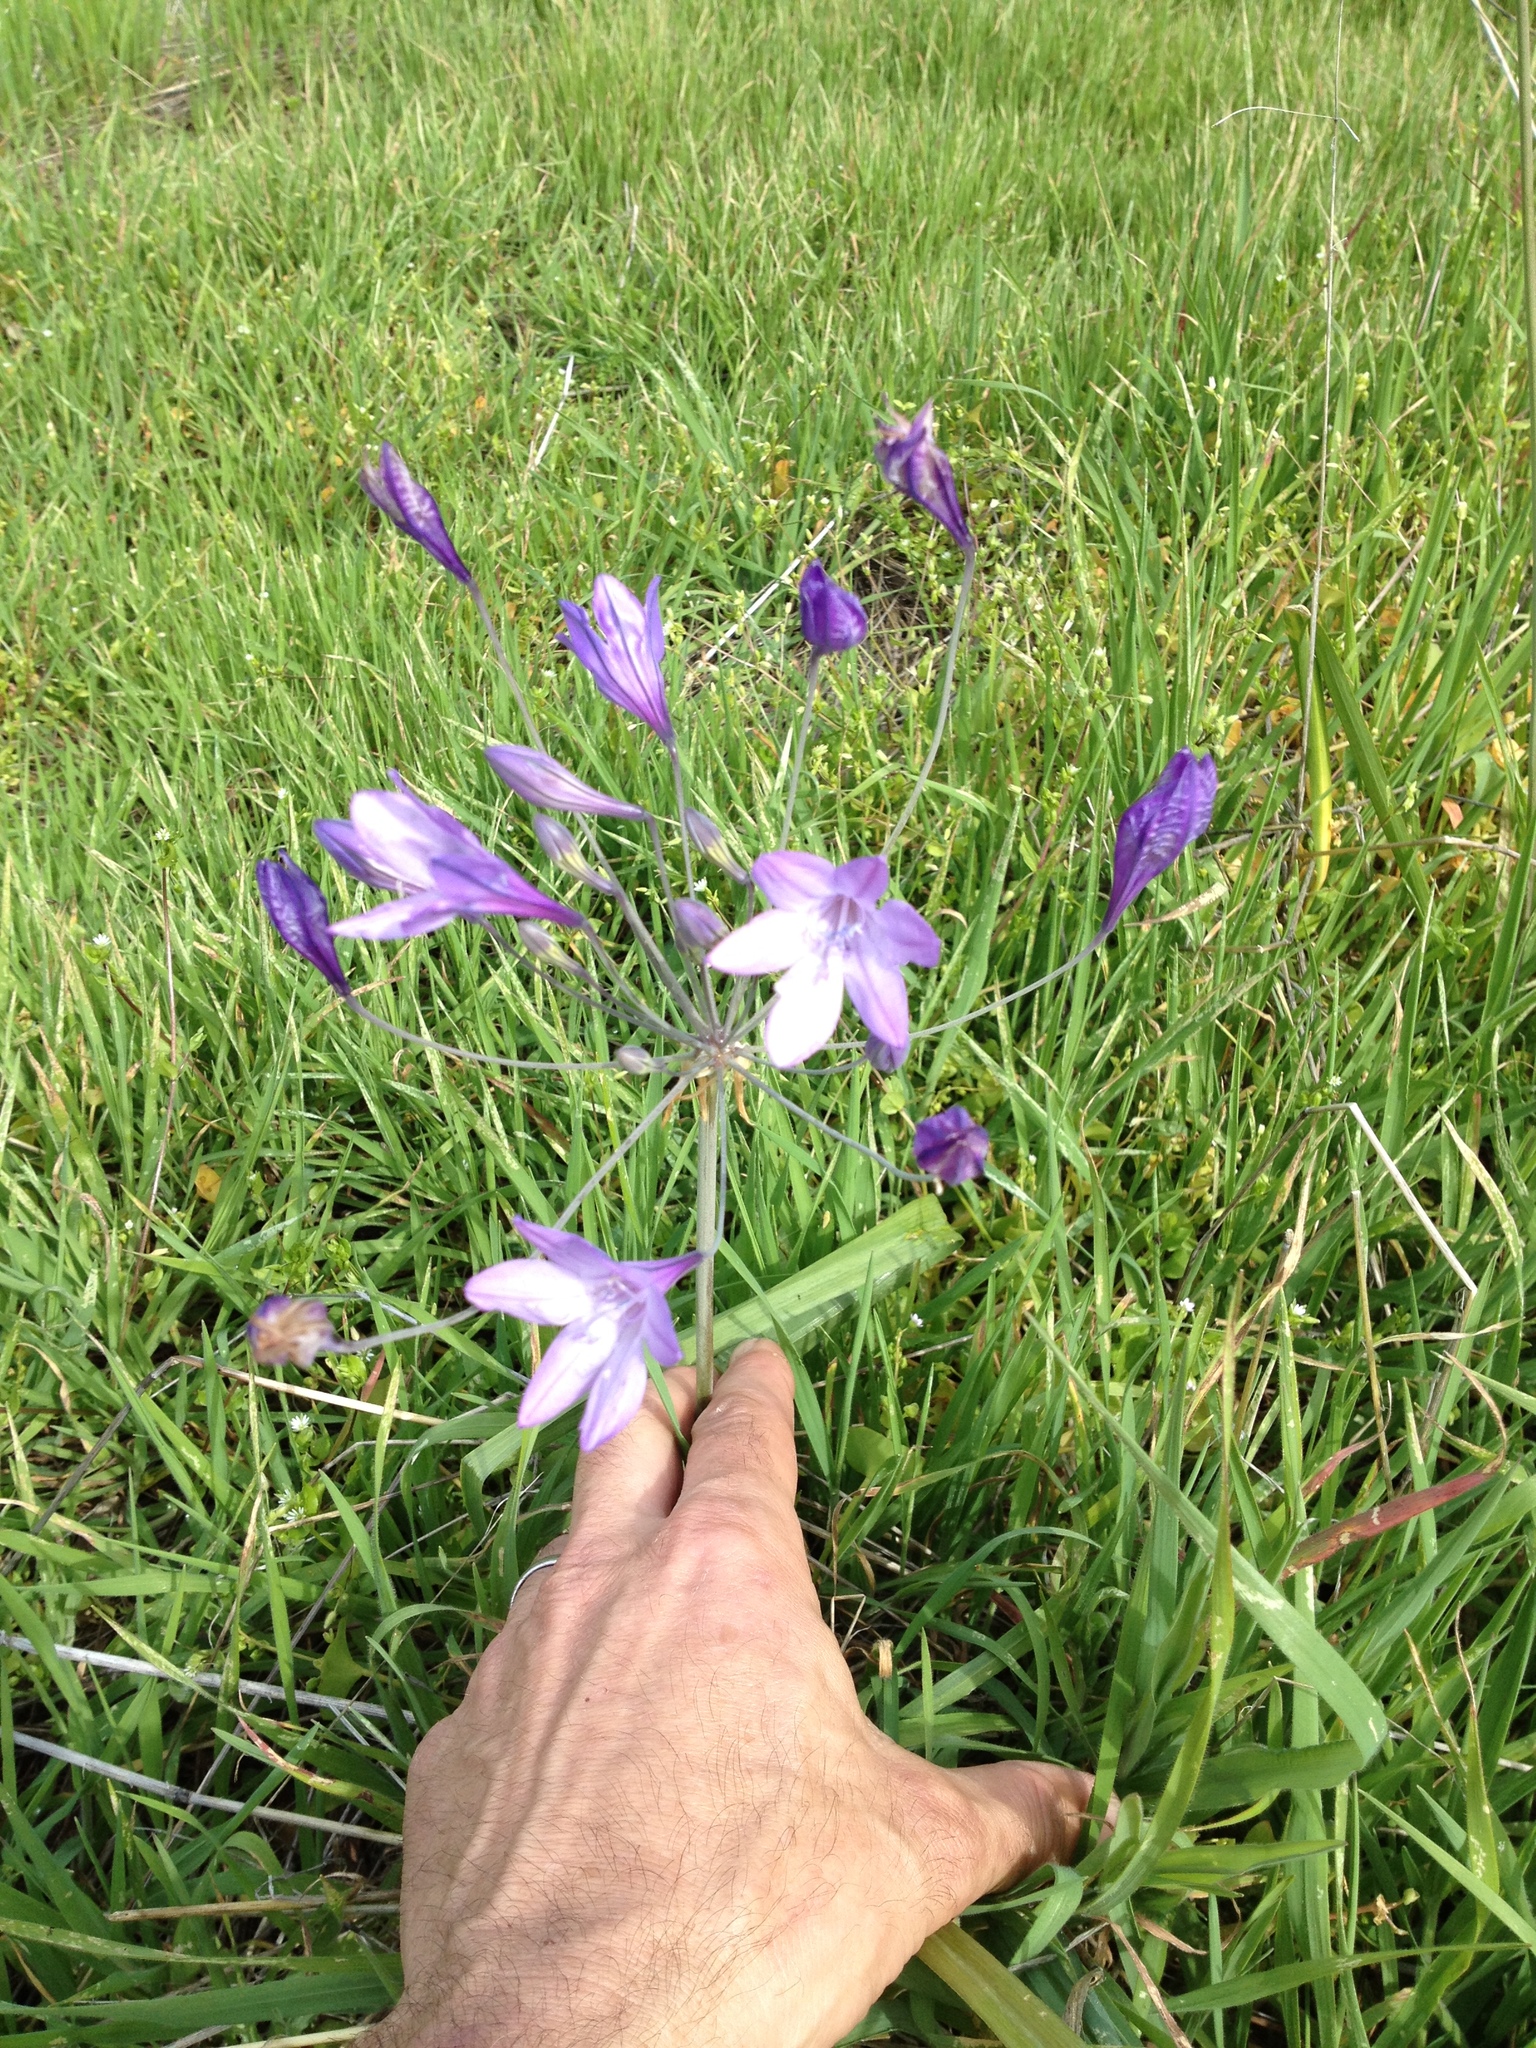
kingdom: Plantae
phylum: Tracheophyta
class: Liliopsida
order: Asparagales
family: Asparagaceae
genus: Triteleia
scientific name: Triteleia laxa
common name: Triplet-lily
